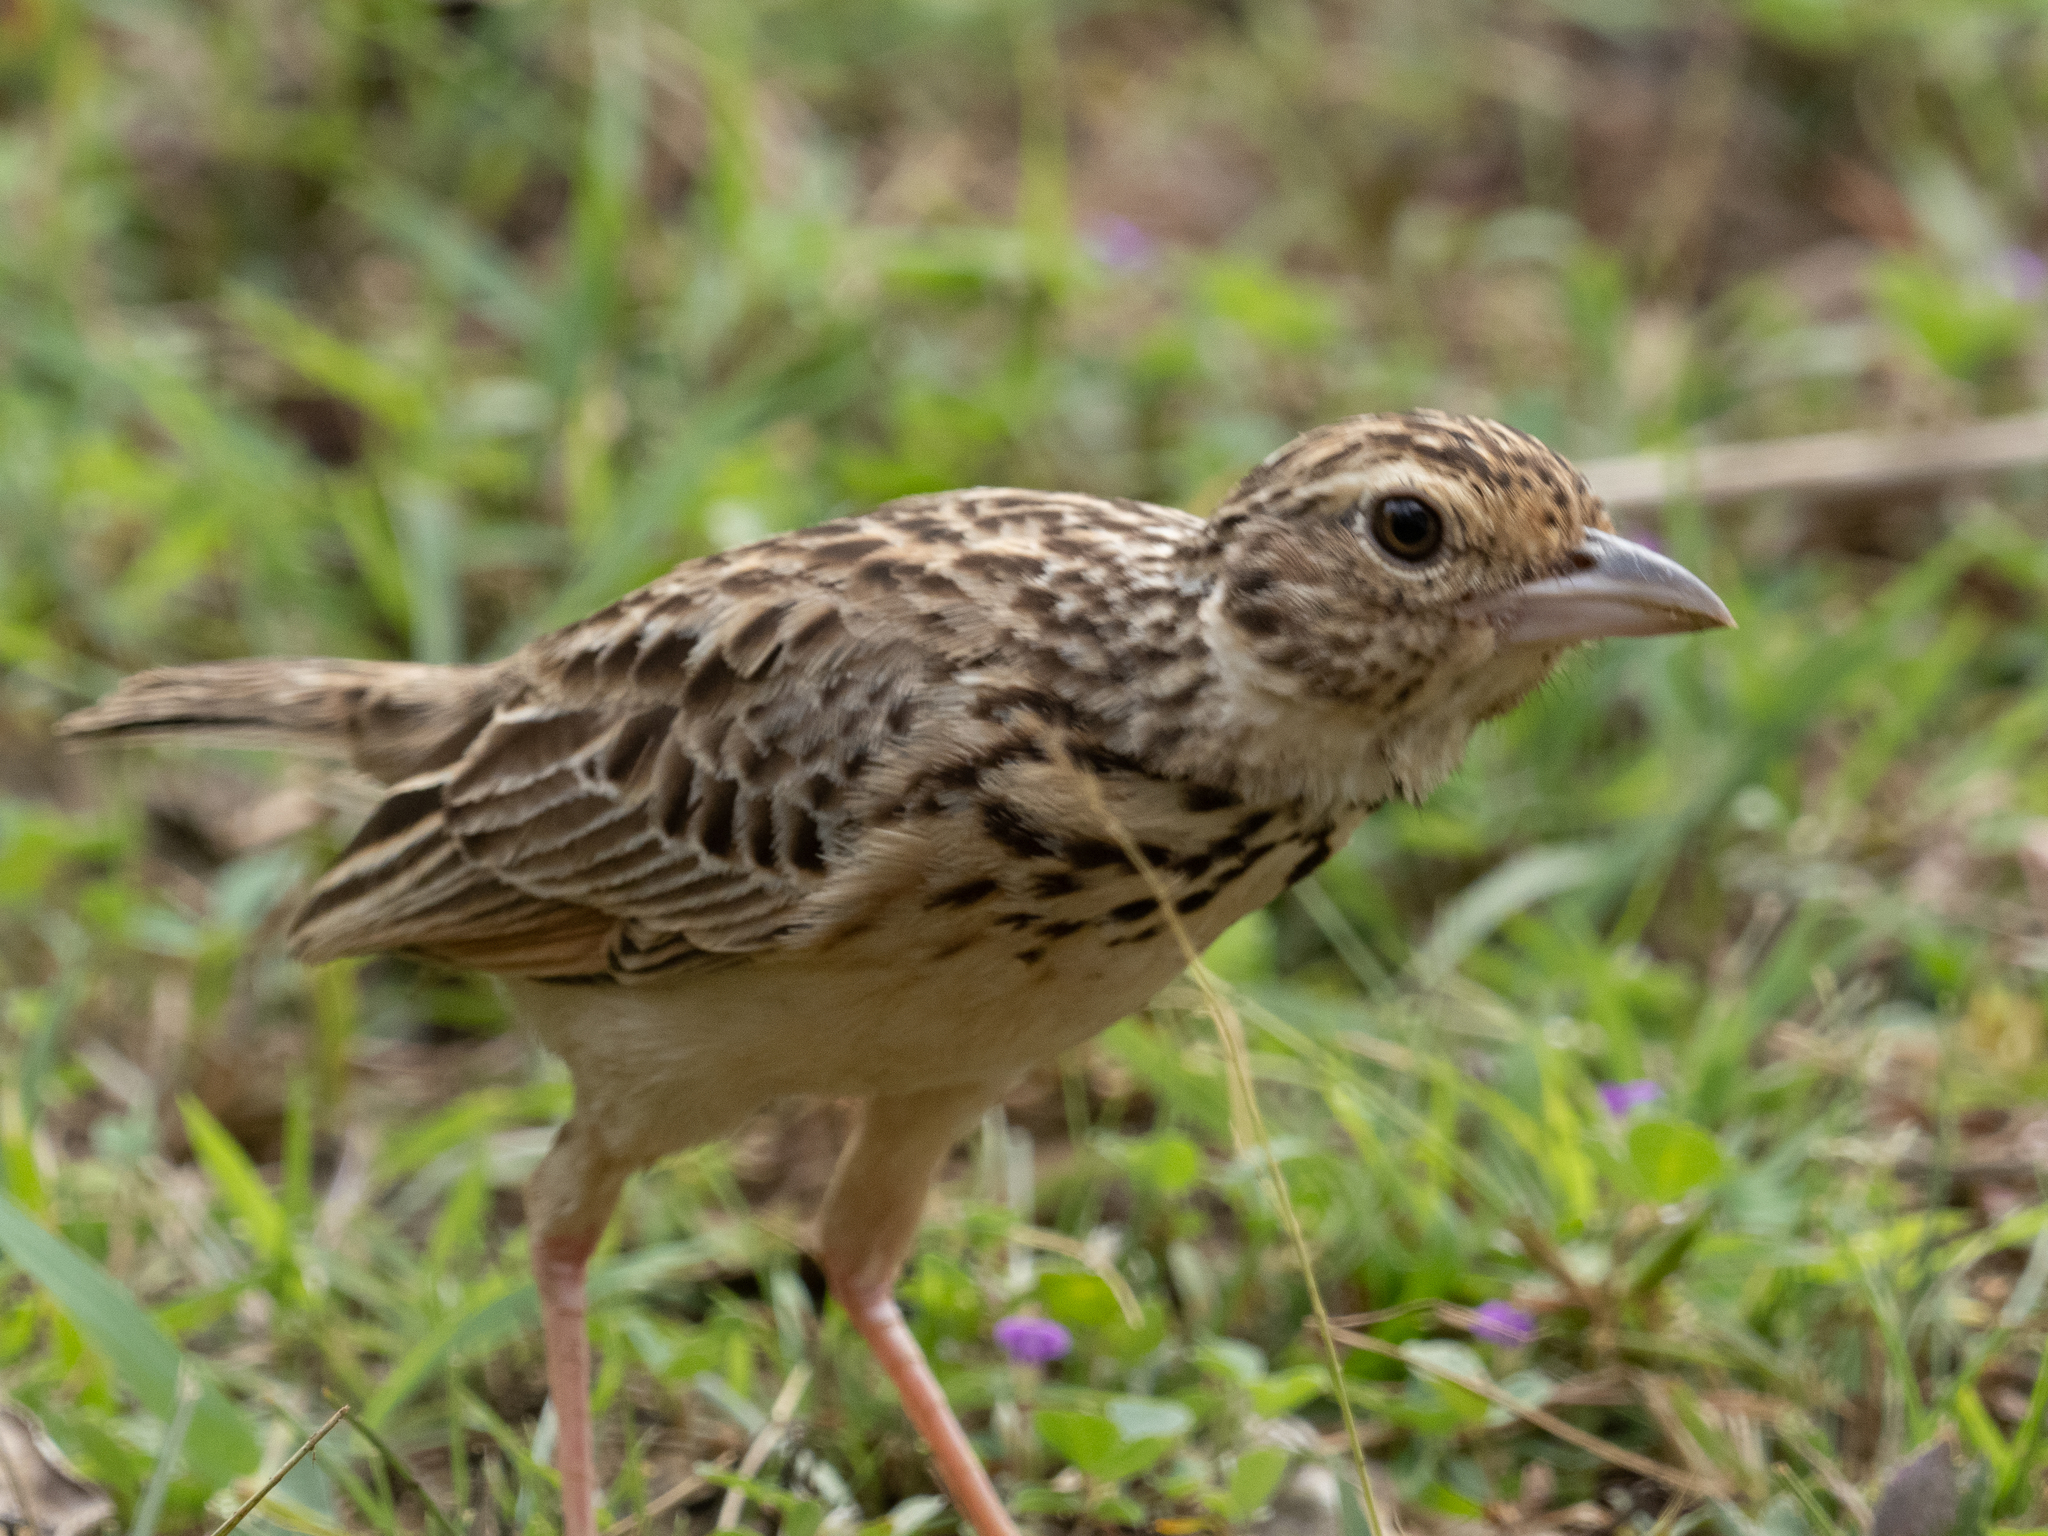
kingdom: Animalia
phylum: Chordata
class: Aves
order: Passeriformes
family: Alaudidae
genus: Mirafra
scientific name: Mirafra affinis
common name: Jerdon's bushlark
